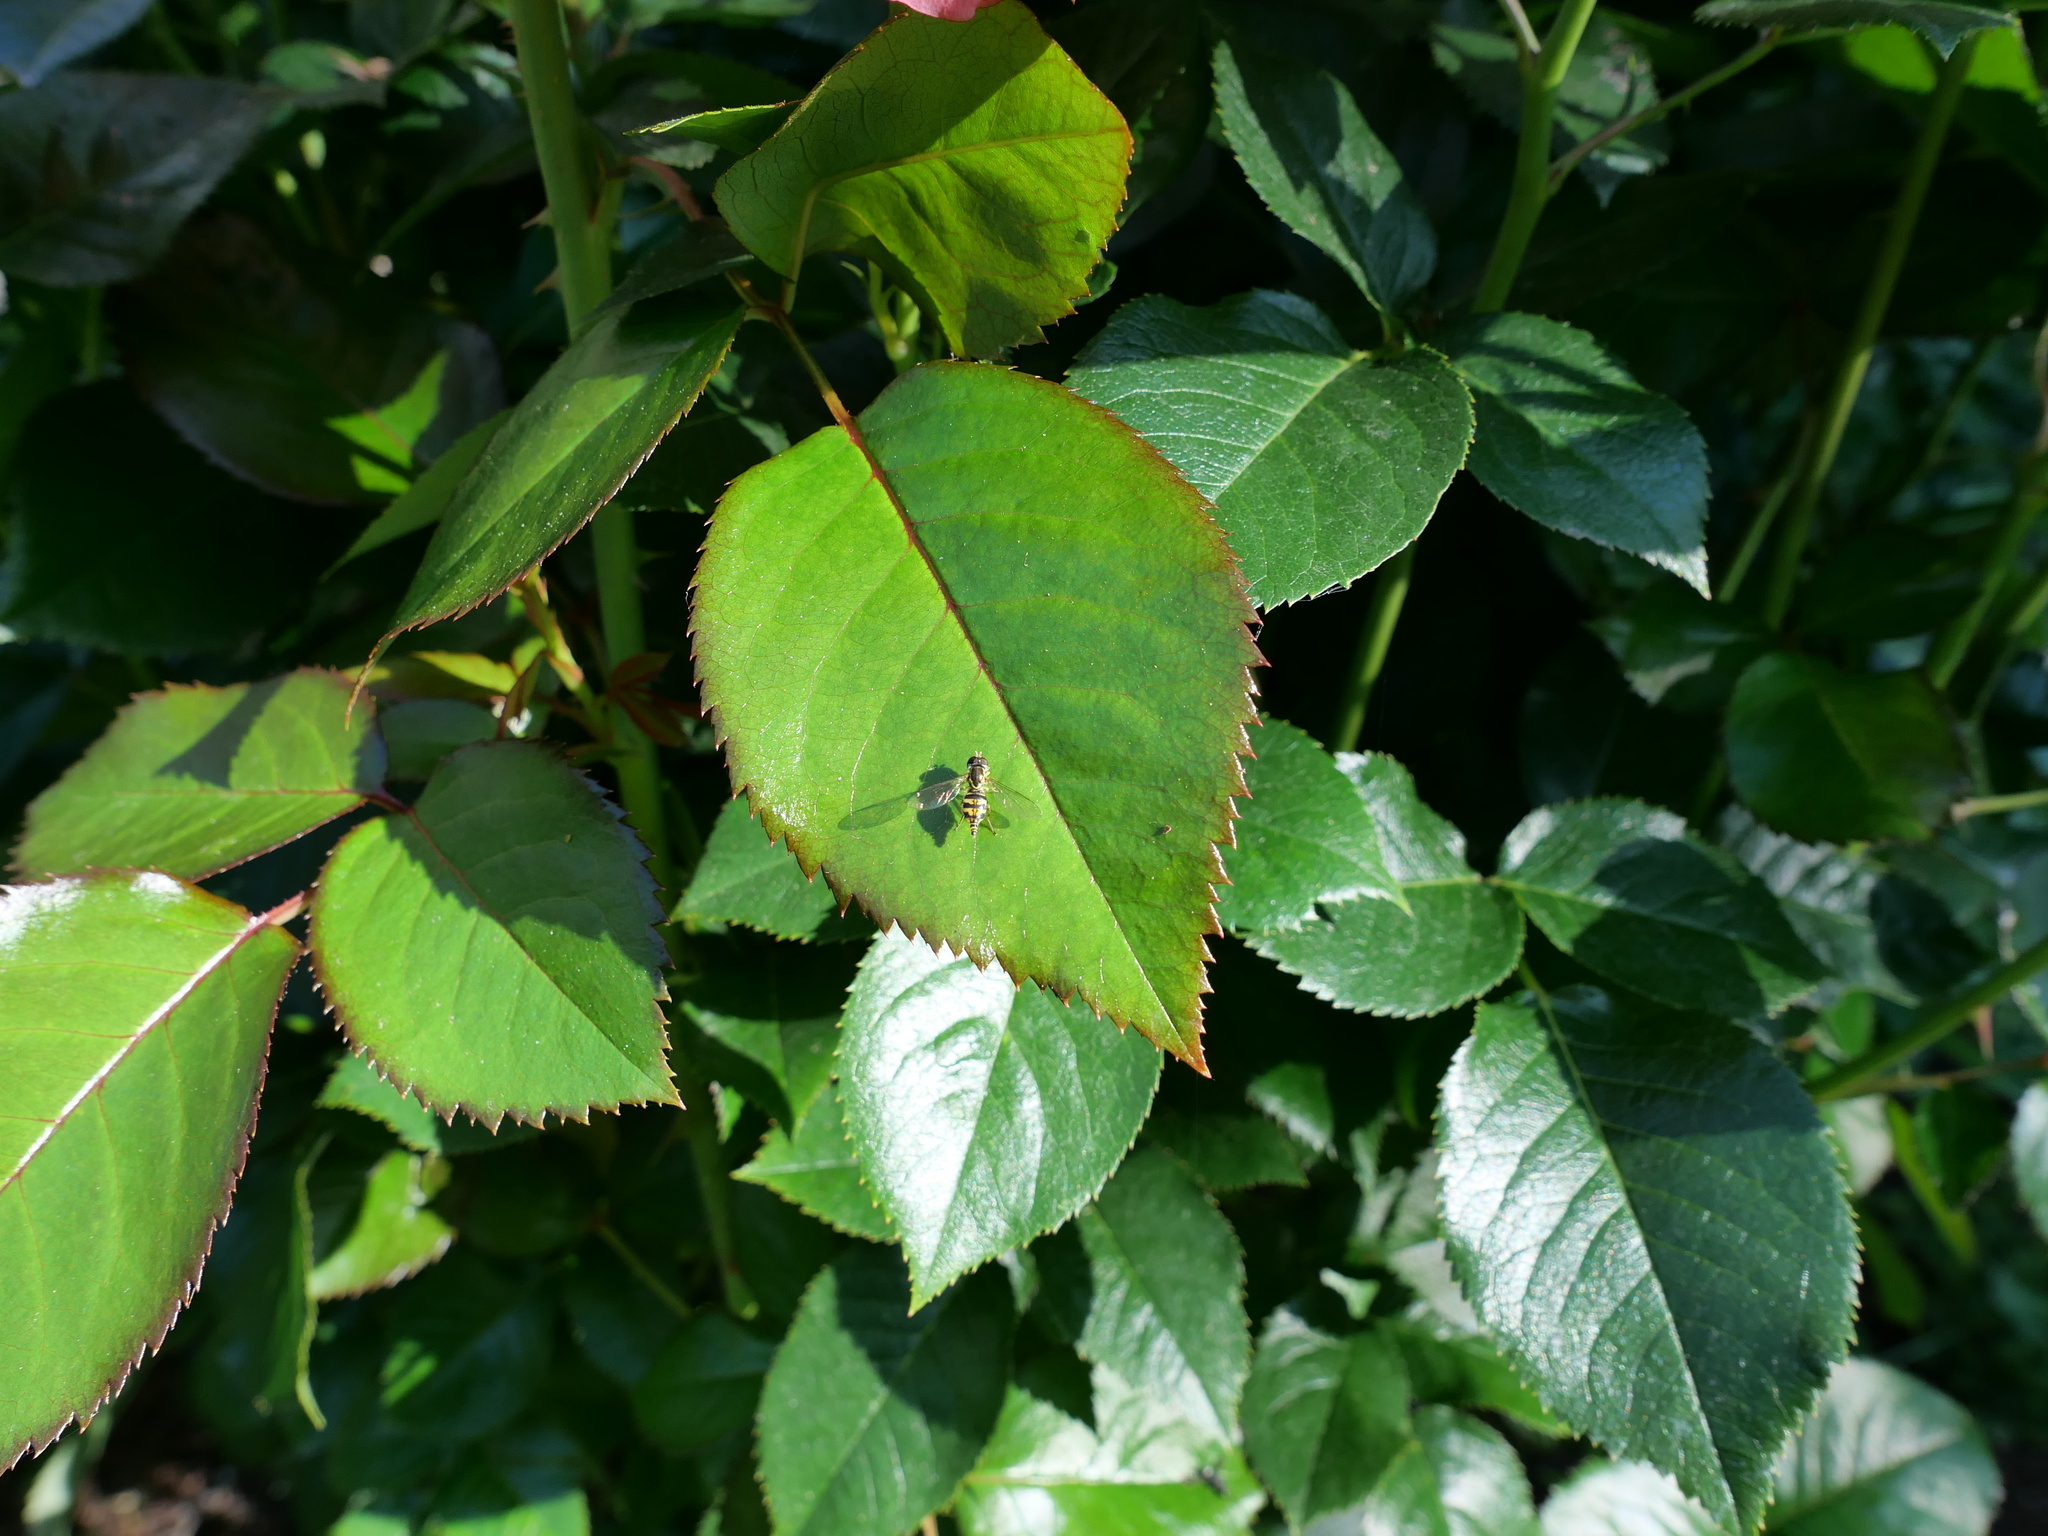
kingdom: Animalia
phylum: Arthropoda
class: Insecta
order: Diptera
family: Syrphidae
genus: Toxomerus
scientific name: Toxomerus occidentalis
